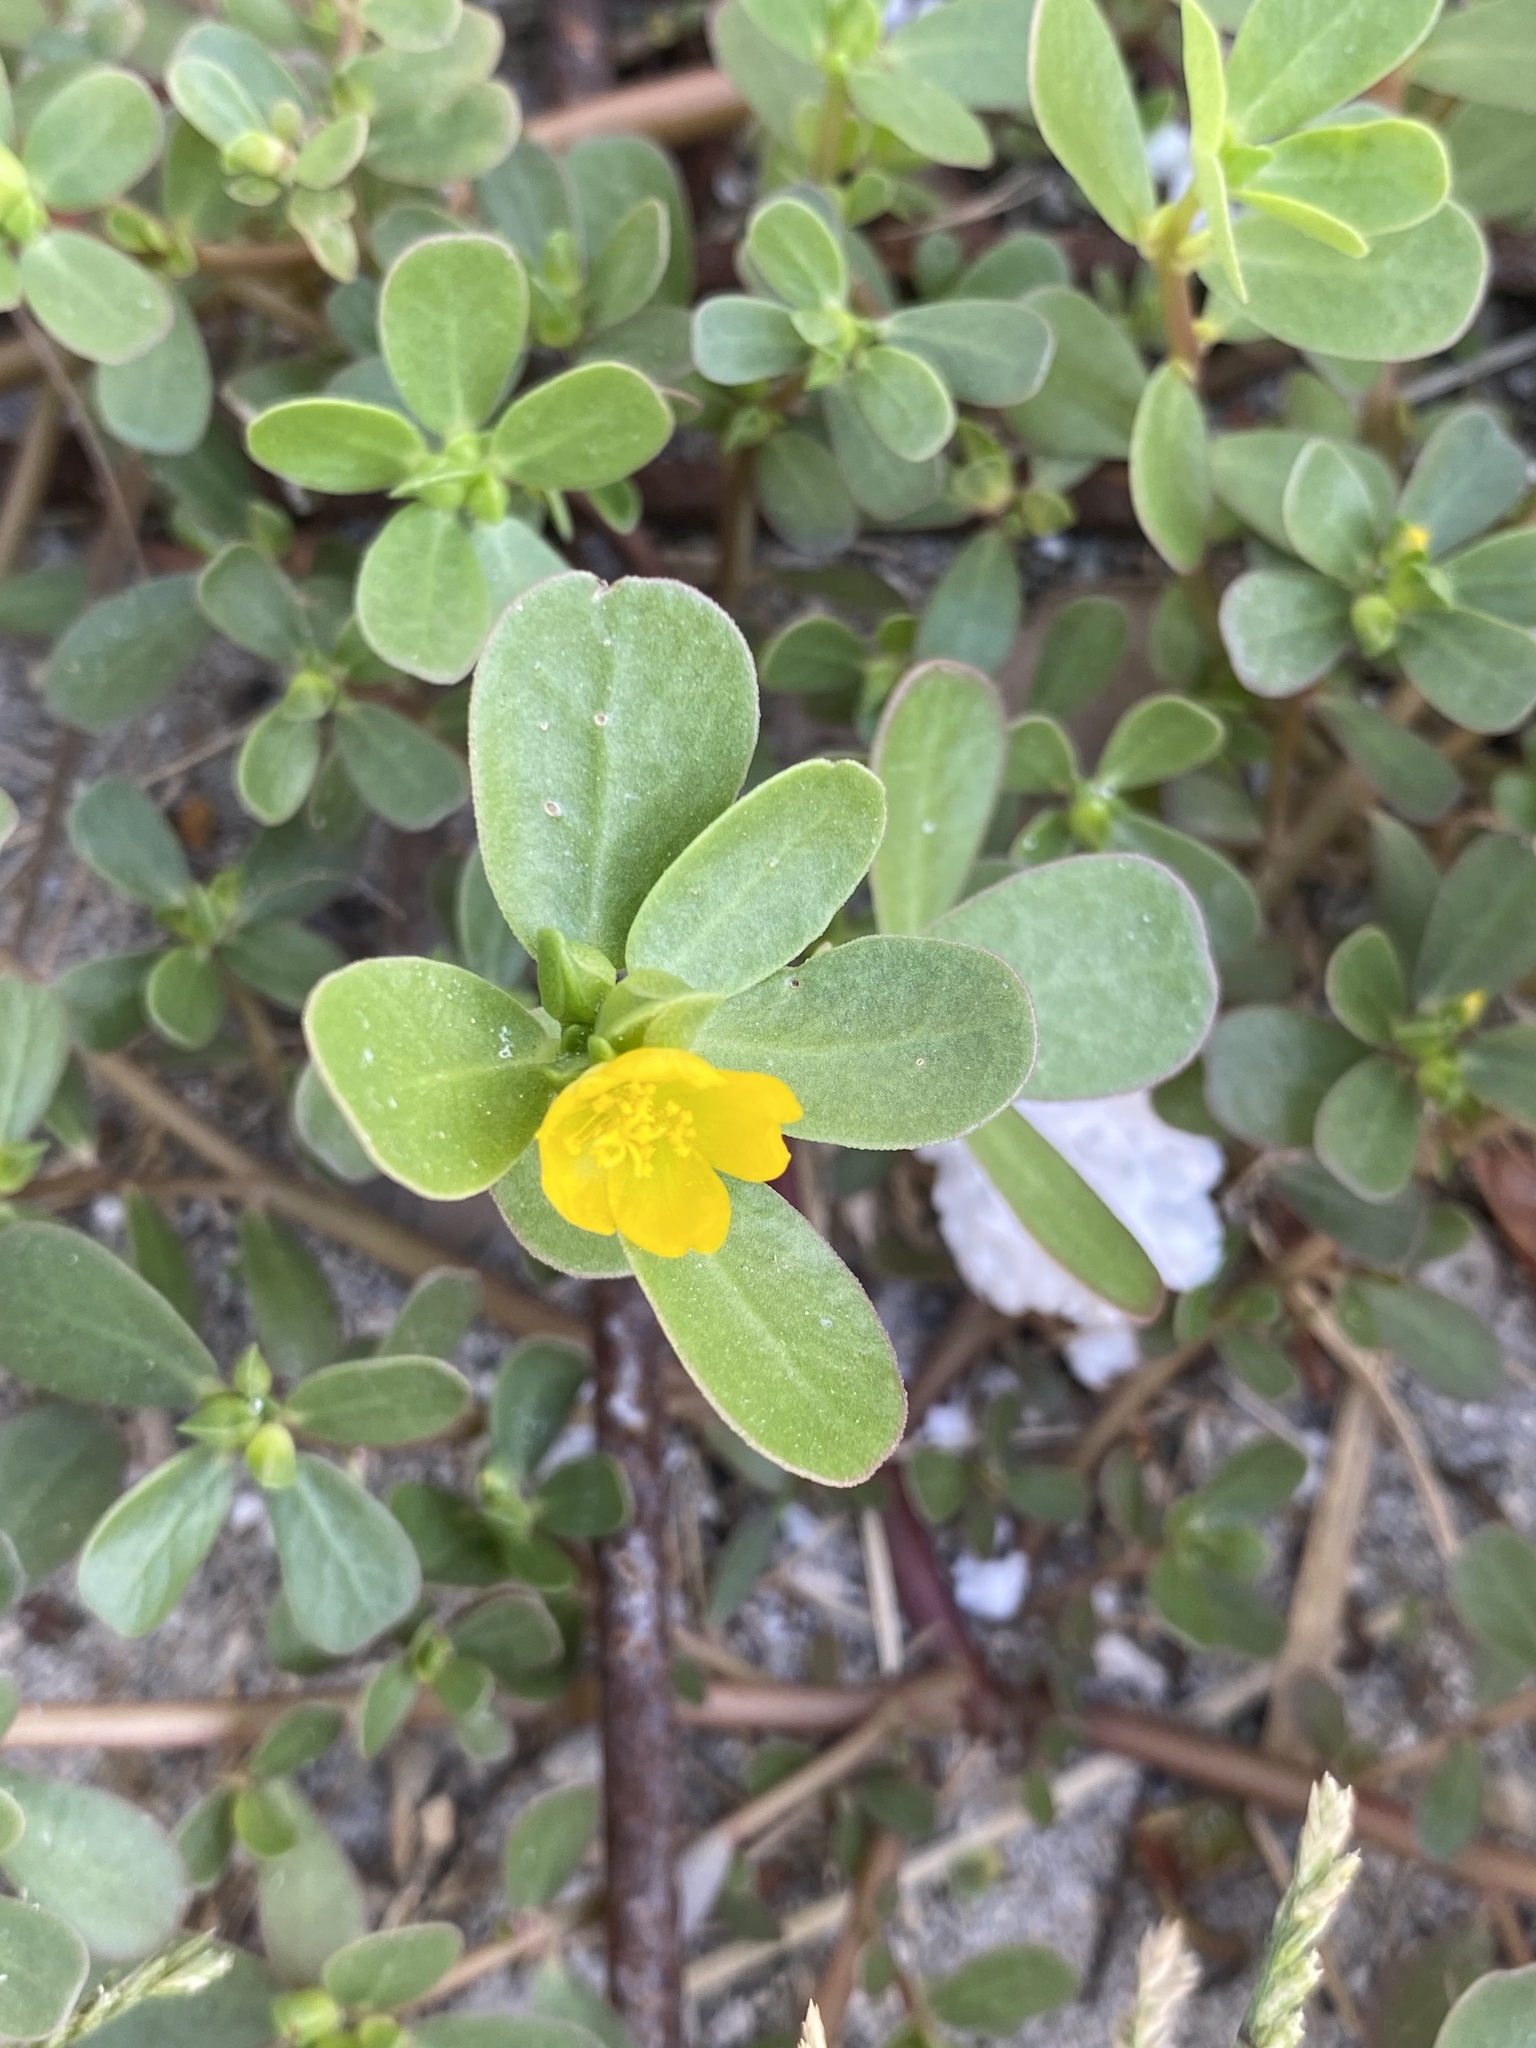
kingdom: Plantae
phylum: Tracheophyta
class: Magnoliopsida
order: Caryophyllales
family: Portulacaceae
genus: Portulaca
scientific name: Portulaca oleracea
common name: Common purslane
